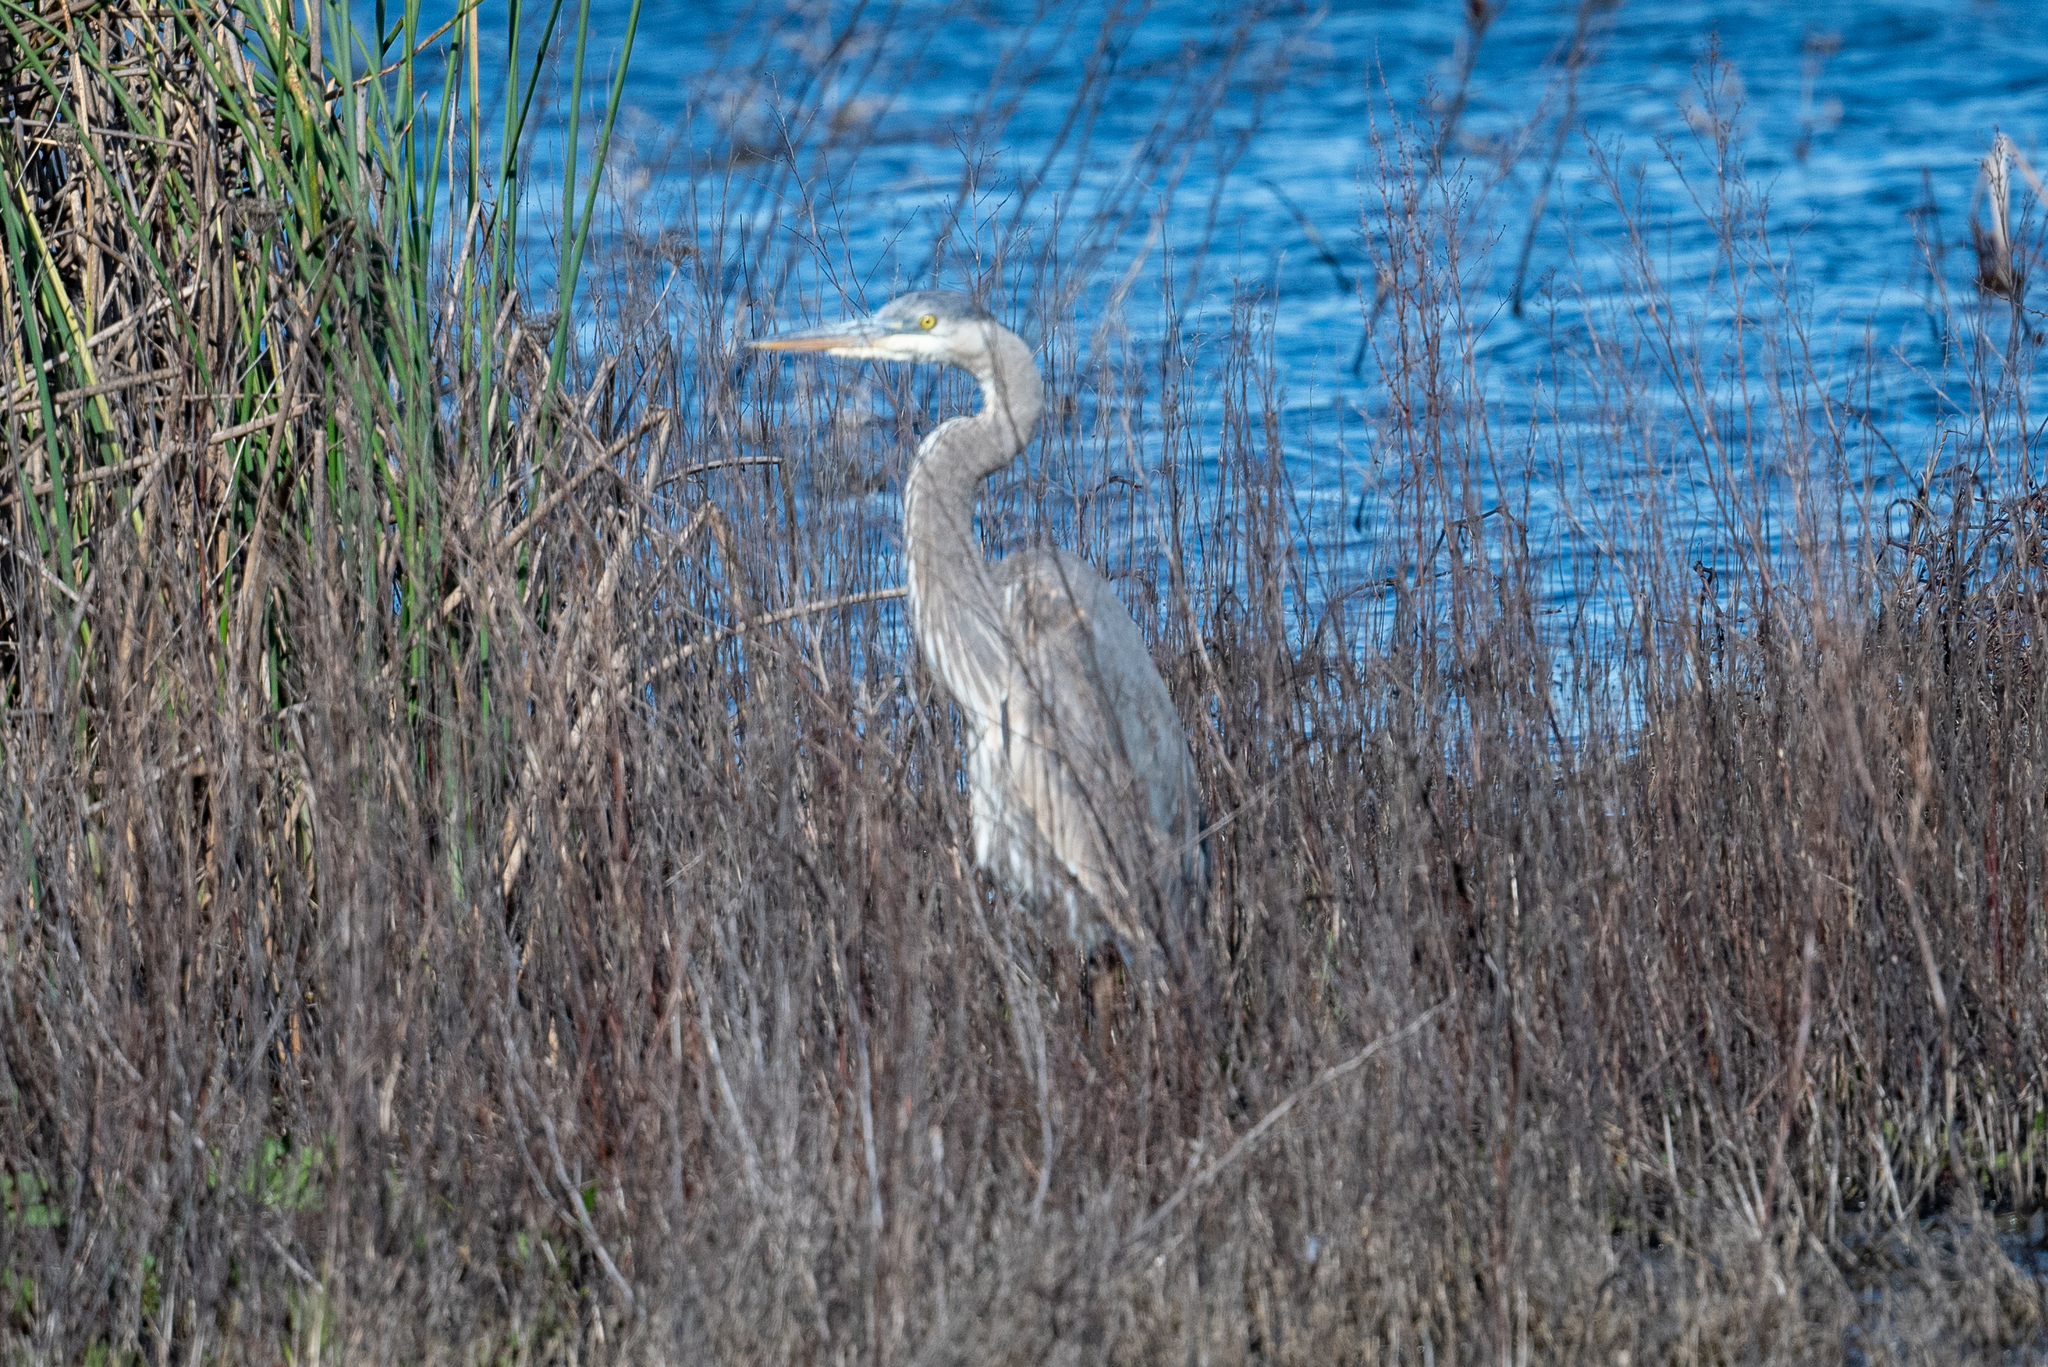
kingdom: Animalia
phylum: Chordata
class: Aves
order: Pelecaniformes
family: Ardeidae
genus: Ardea
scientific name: Ardea herodias
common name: Great blue heron
